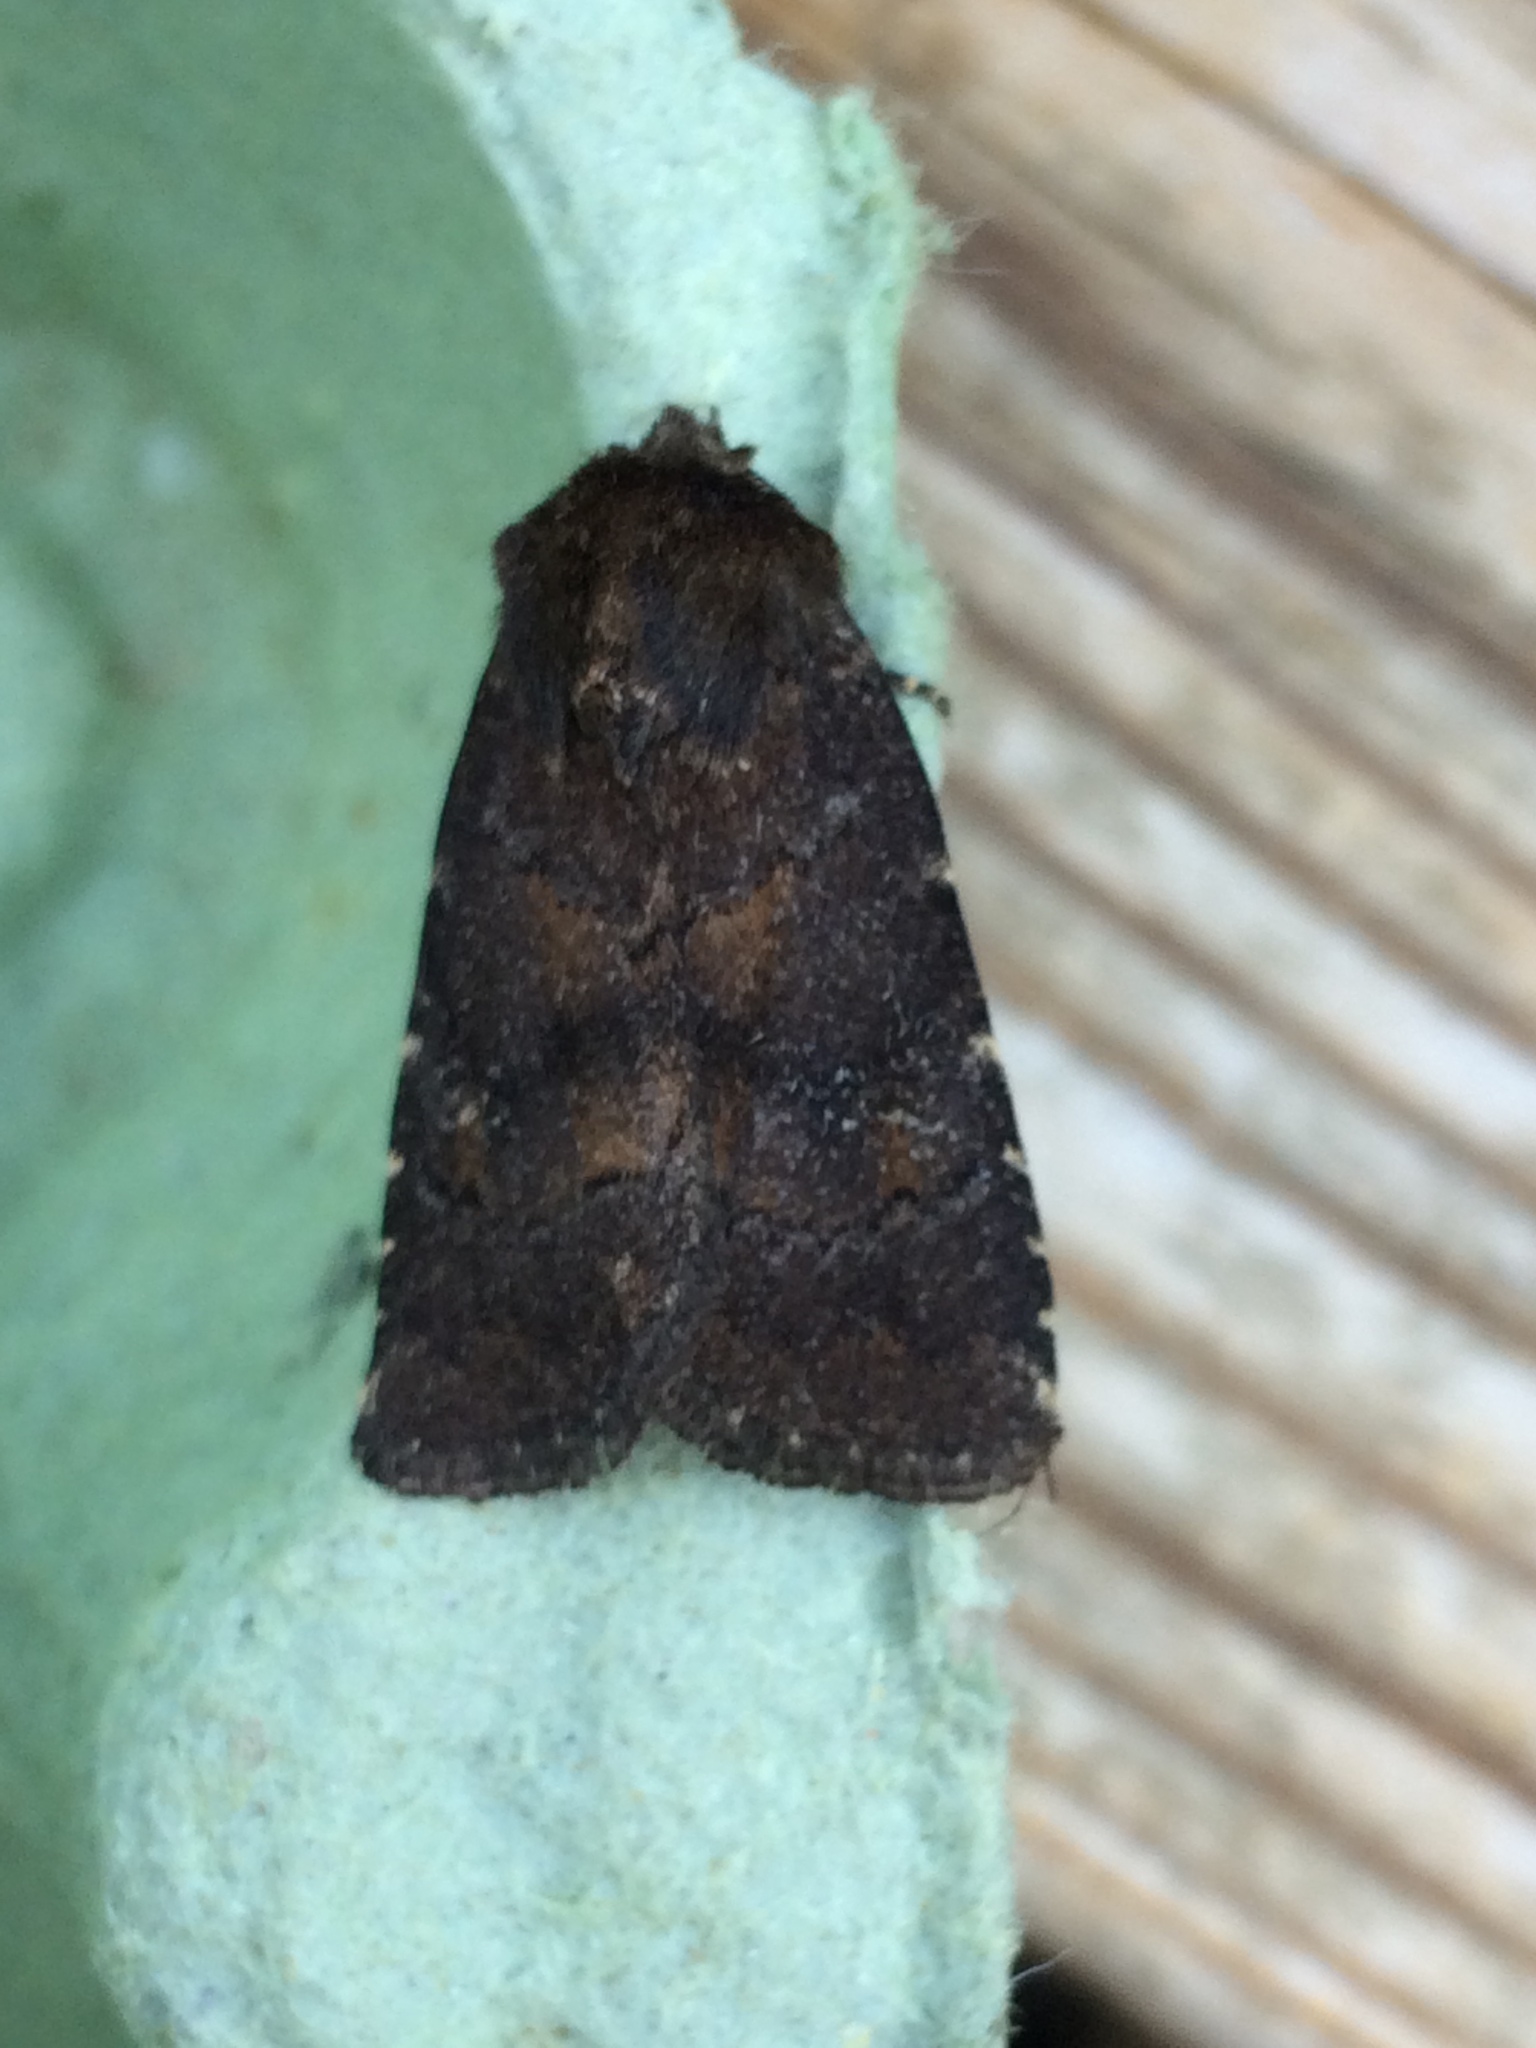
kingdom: Animalia
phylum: Arthropoda
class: Insecta
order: Lepidoptera
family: Noctuidae
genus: Charanyca
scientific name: Charanyca ferruginea
